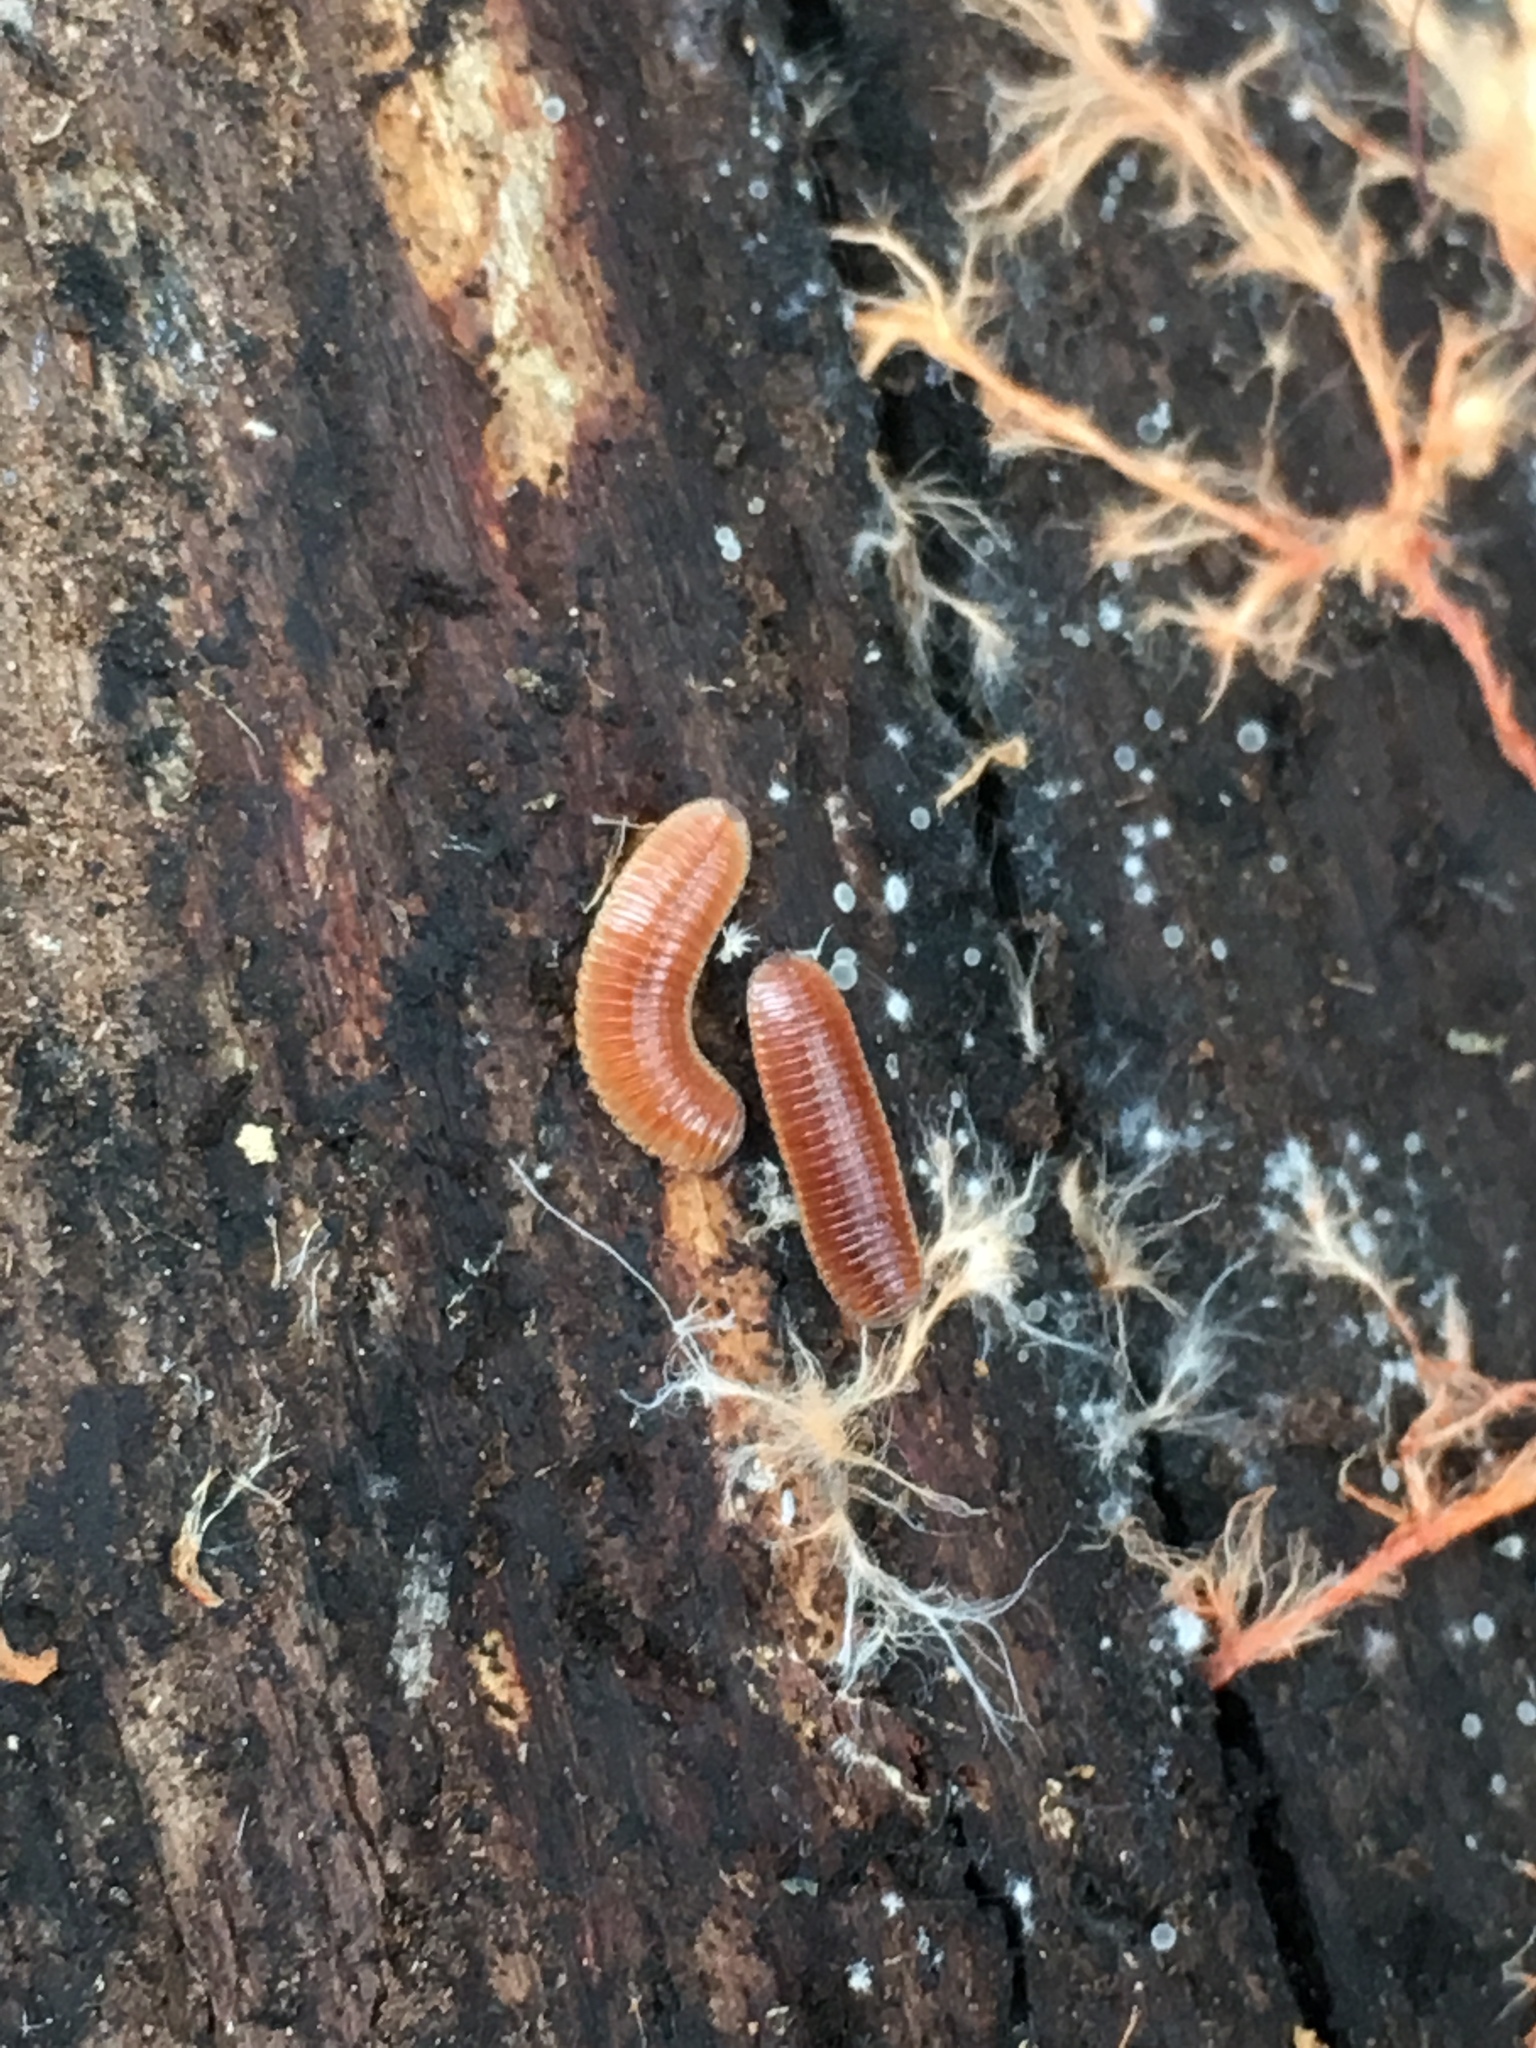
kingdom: Animalia
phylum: Arthropoda
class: Diplopoda
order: Polyzoniida
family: Polyzoniidae
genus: Bdellozonium
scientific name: Bdellozonium cerviculatum
